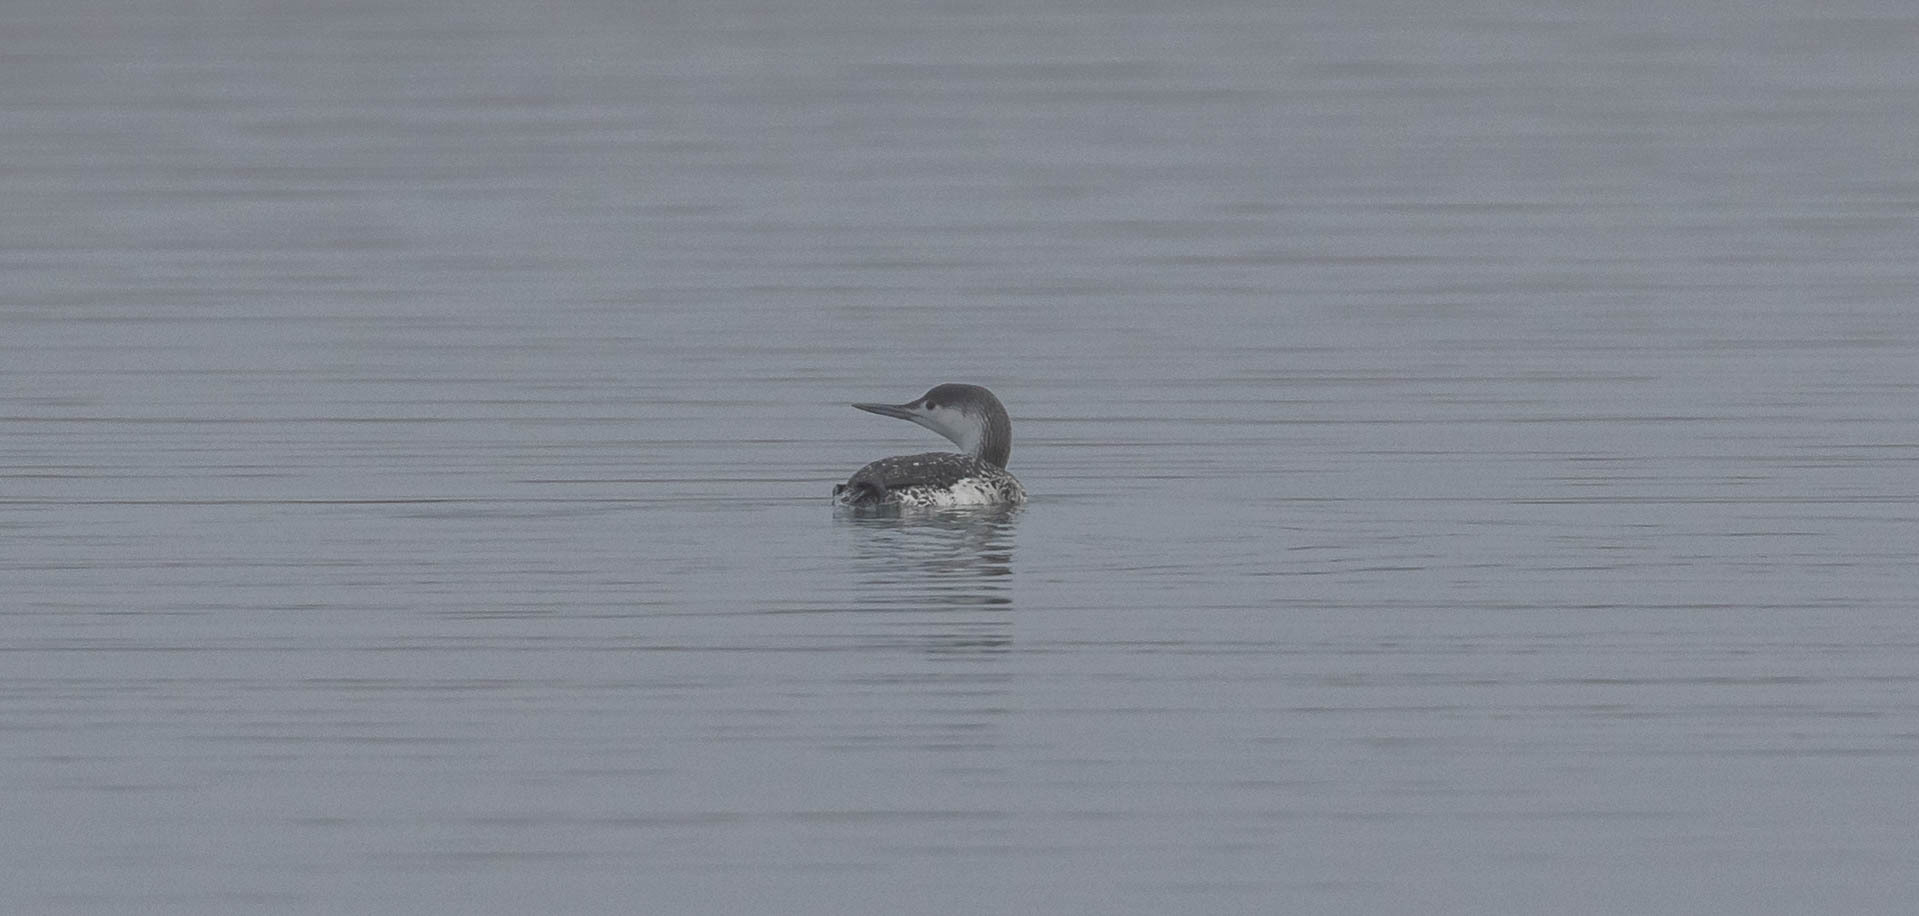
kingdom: Animalia
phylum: Chordata
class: Aves
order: Gaviiformes
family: Gaviidae
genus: Gavia
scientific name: Gavia stellata
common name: Red-throated loon
